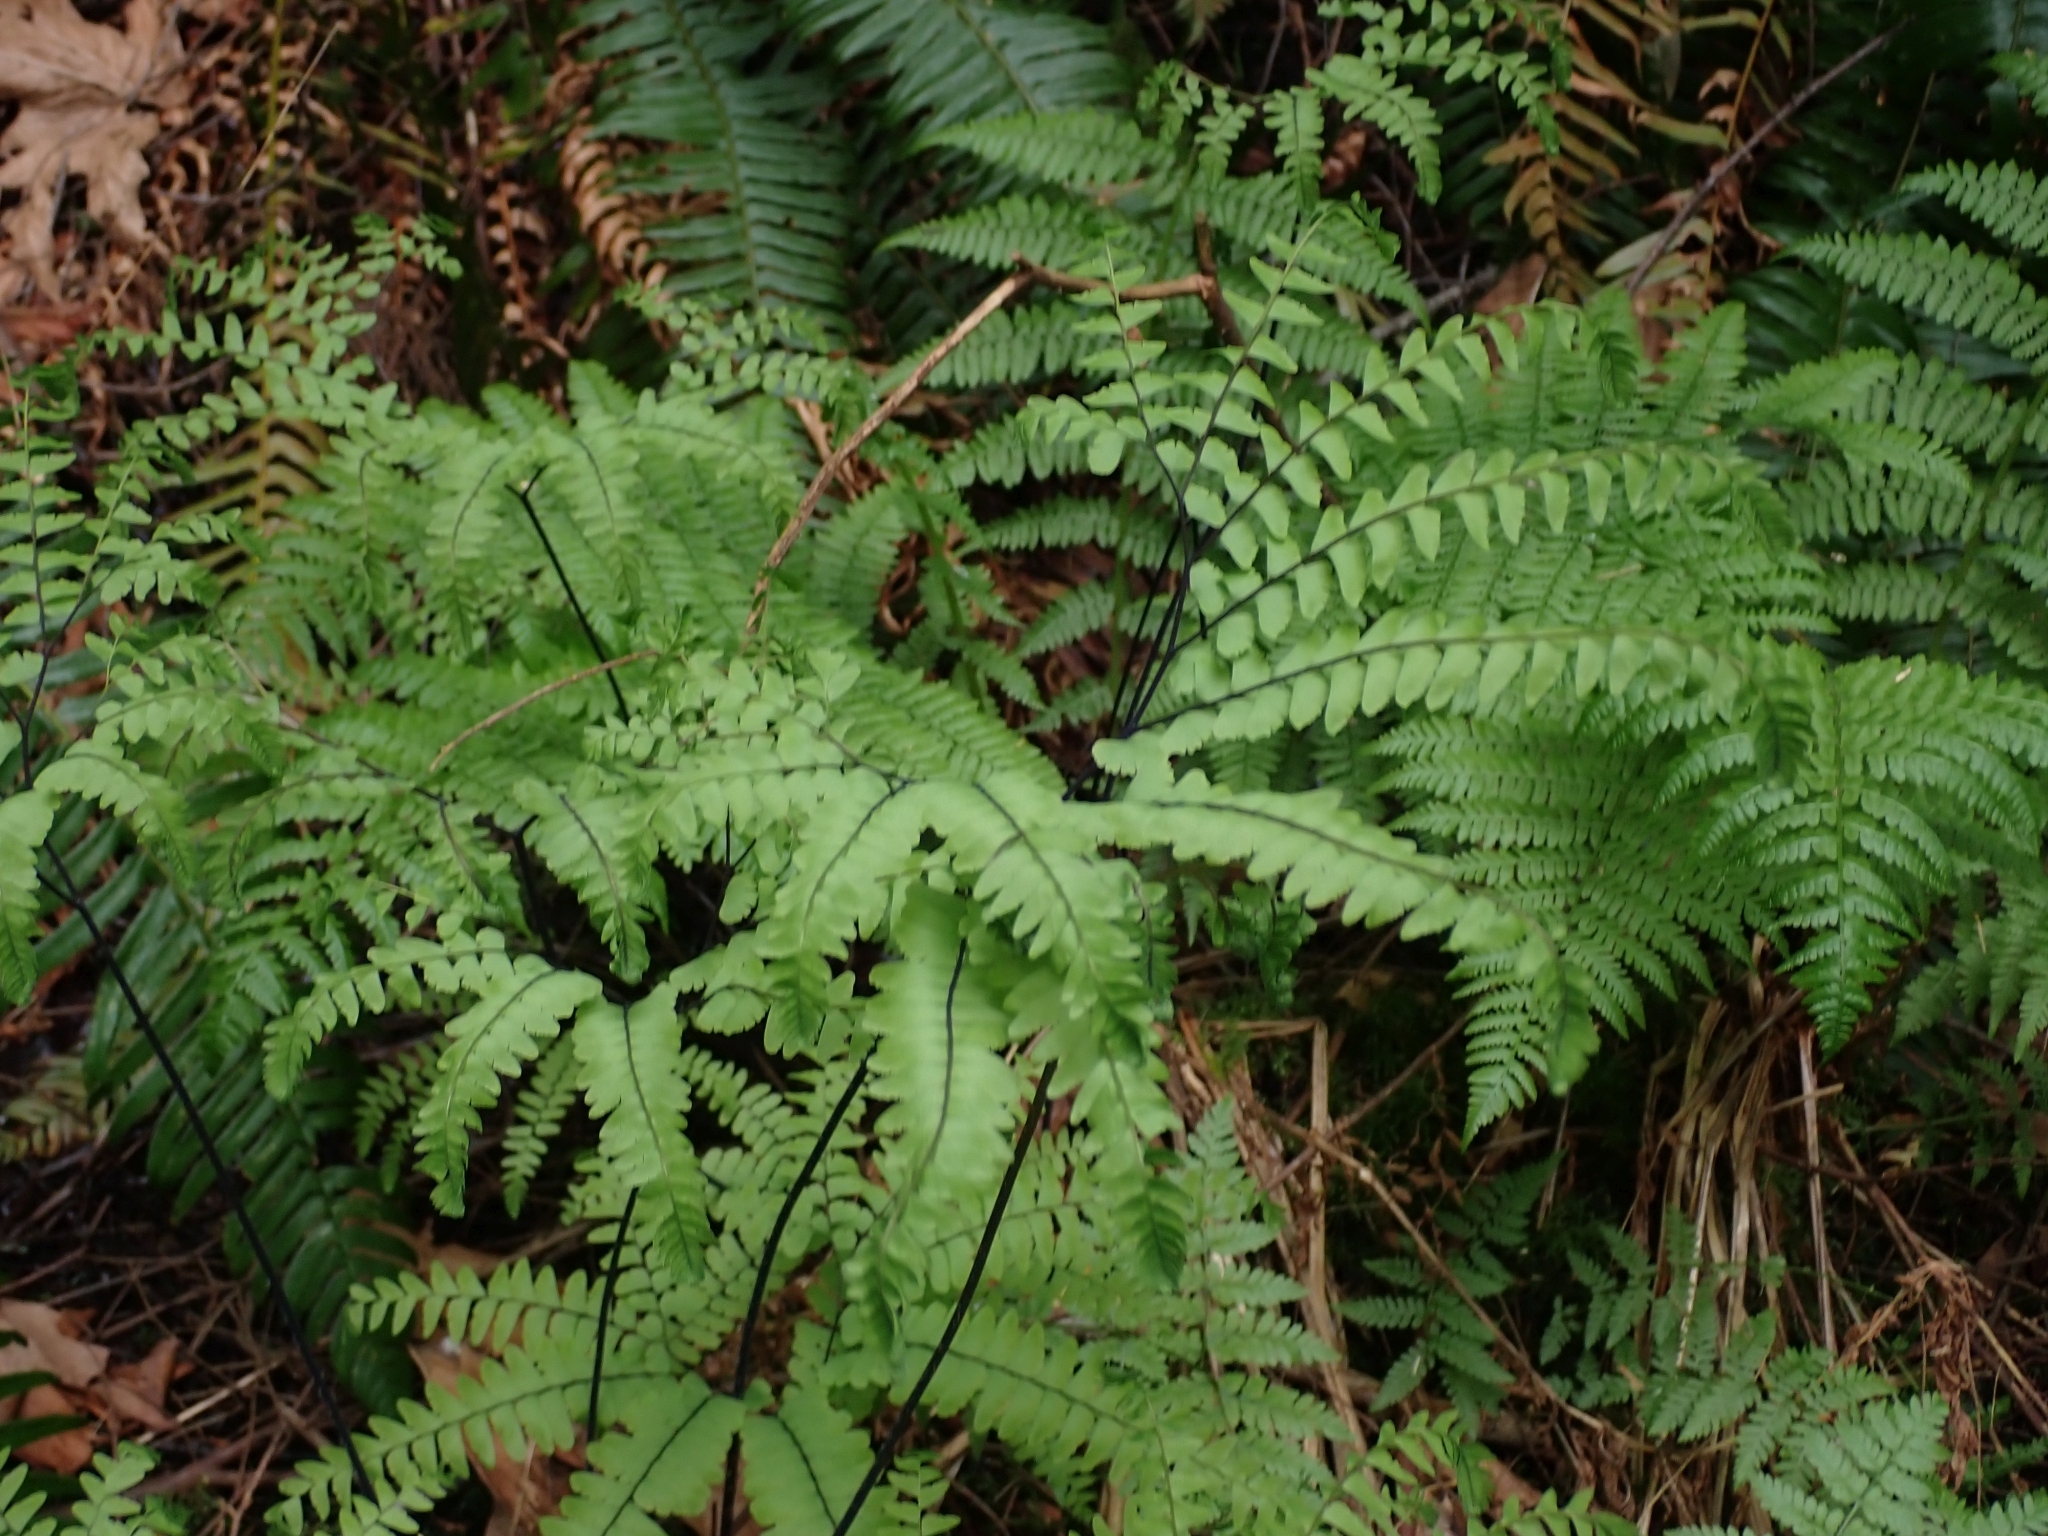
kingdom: Plantae
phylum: Tracheophyta
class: Polypodiopsida
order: Polypodiales
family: Pteridaceae
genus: Adiantum
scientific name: Adiantum aleuticum
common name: Aleutian maidenhair fern
